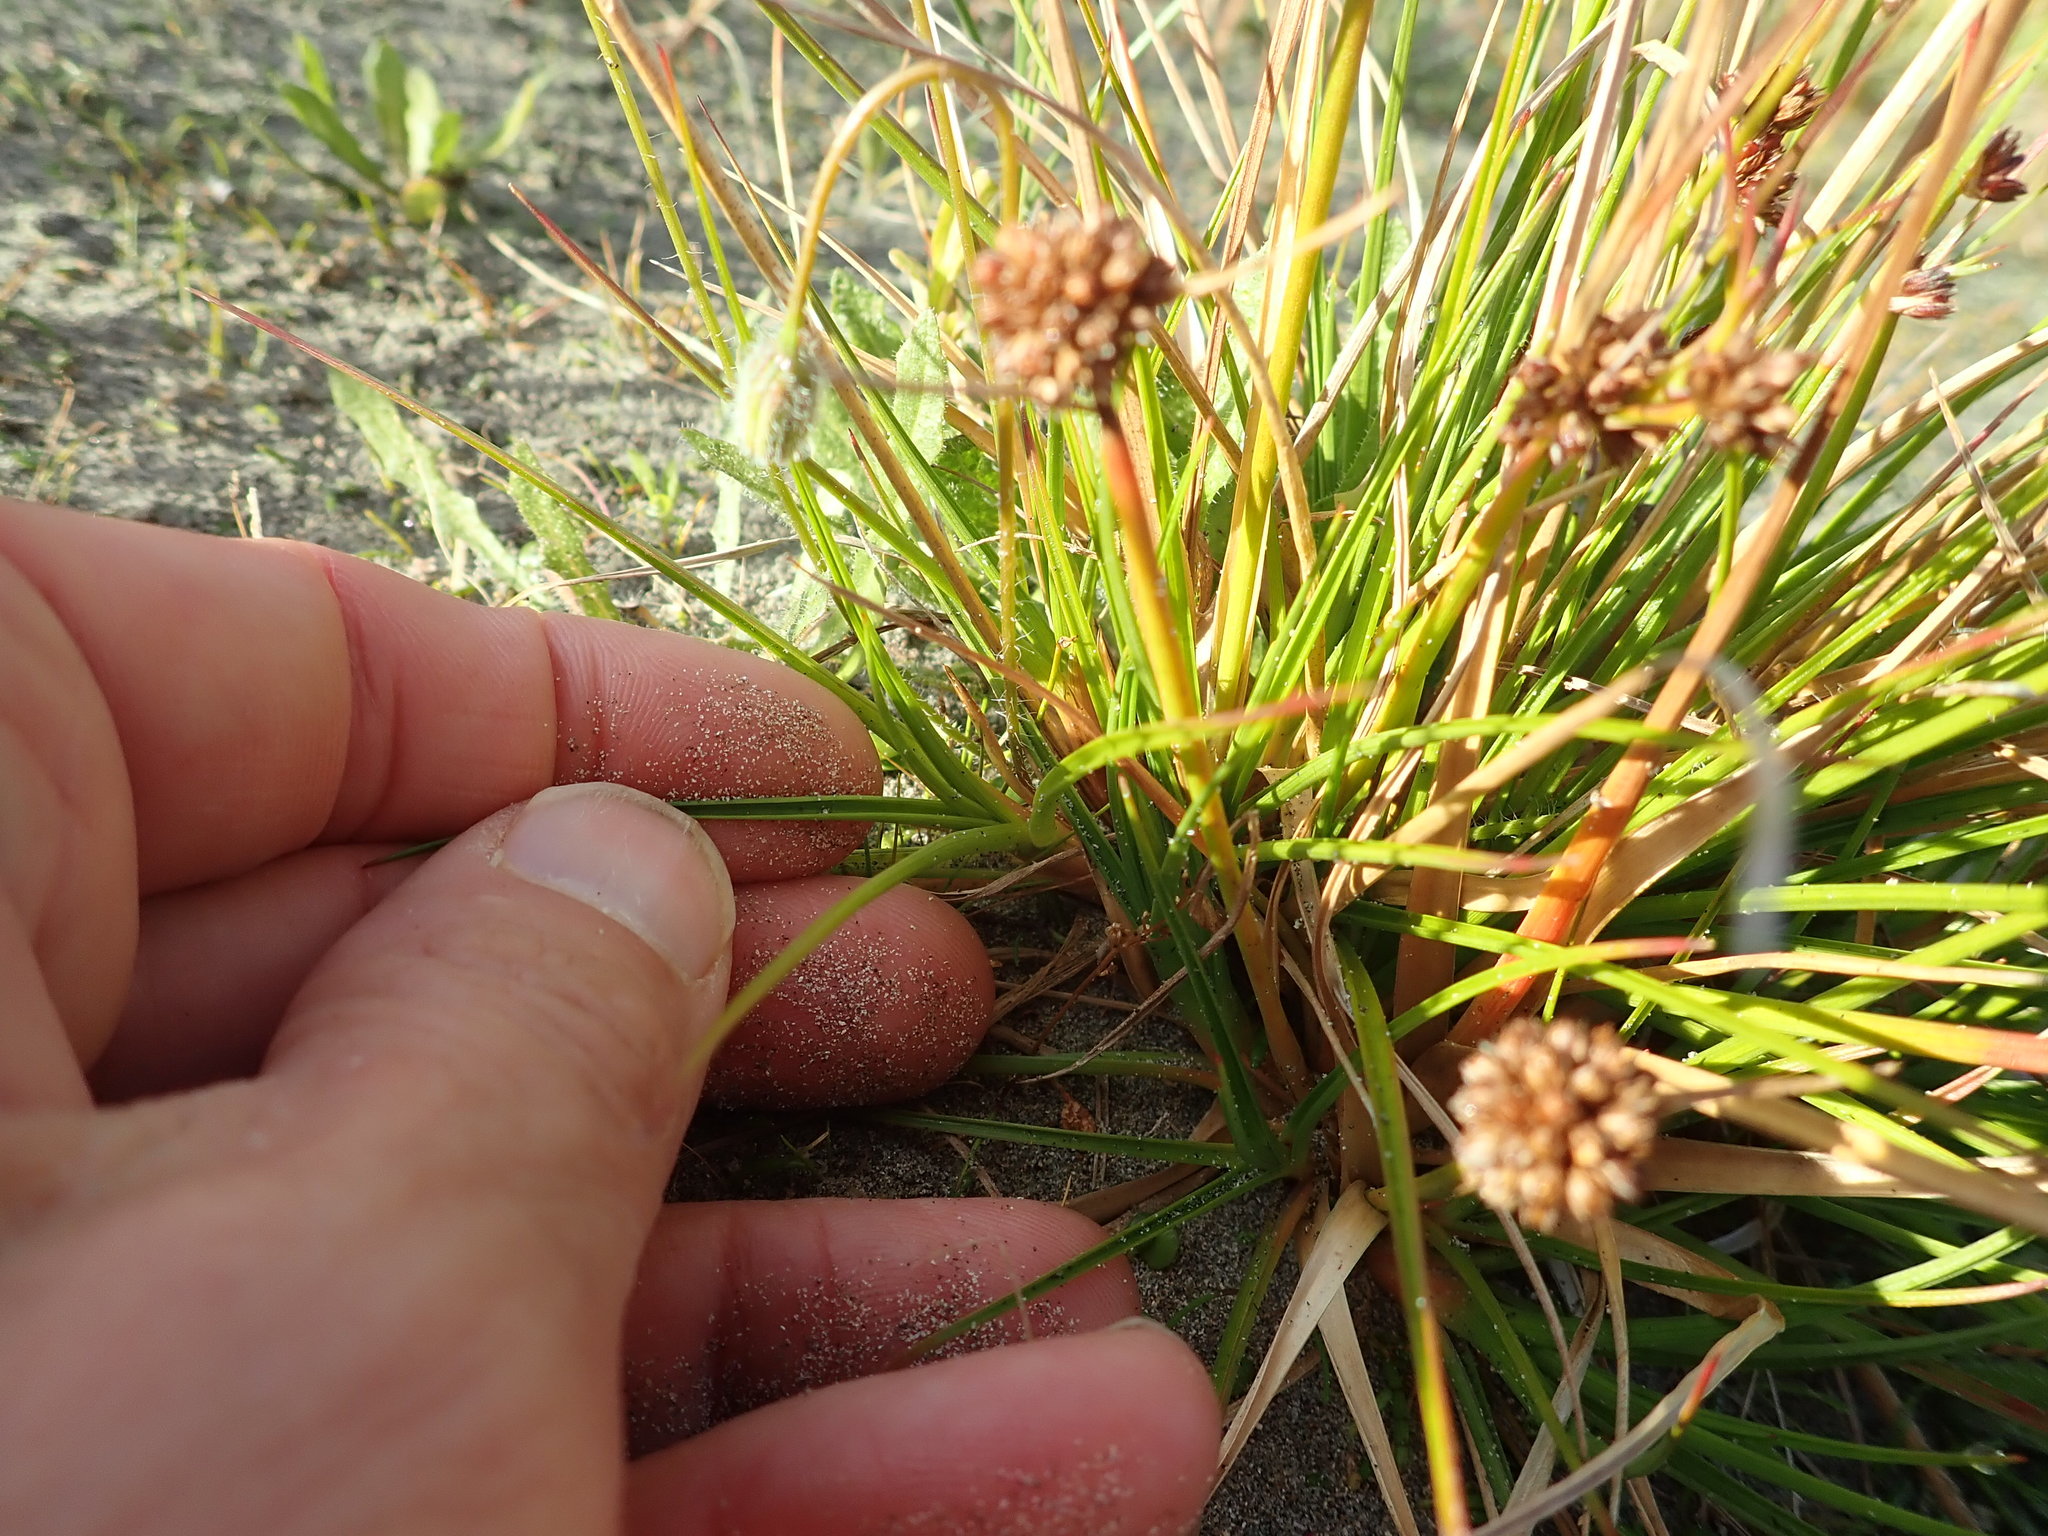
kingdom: Plantae
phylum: Tracheophyta
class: Liliopsida
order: Poales
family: Juncaceae
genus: Juncus
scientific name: Juncus caespiticius
